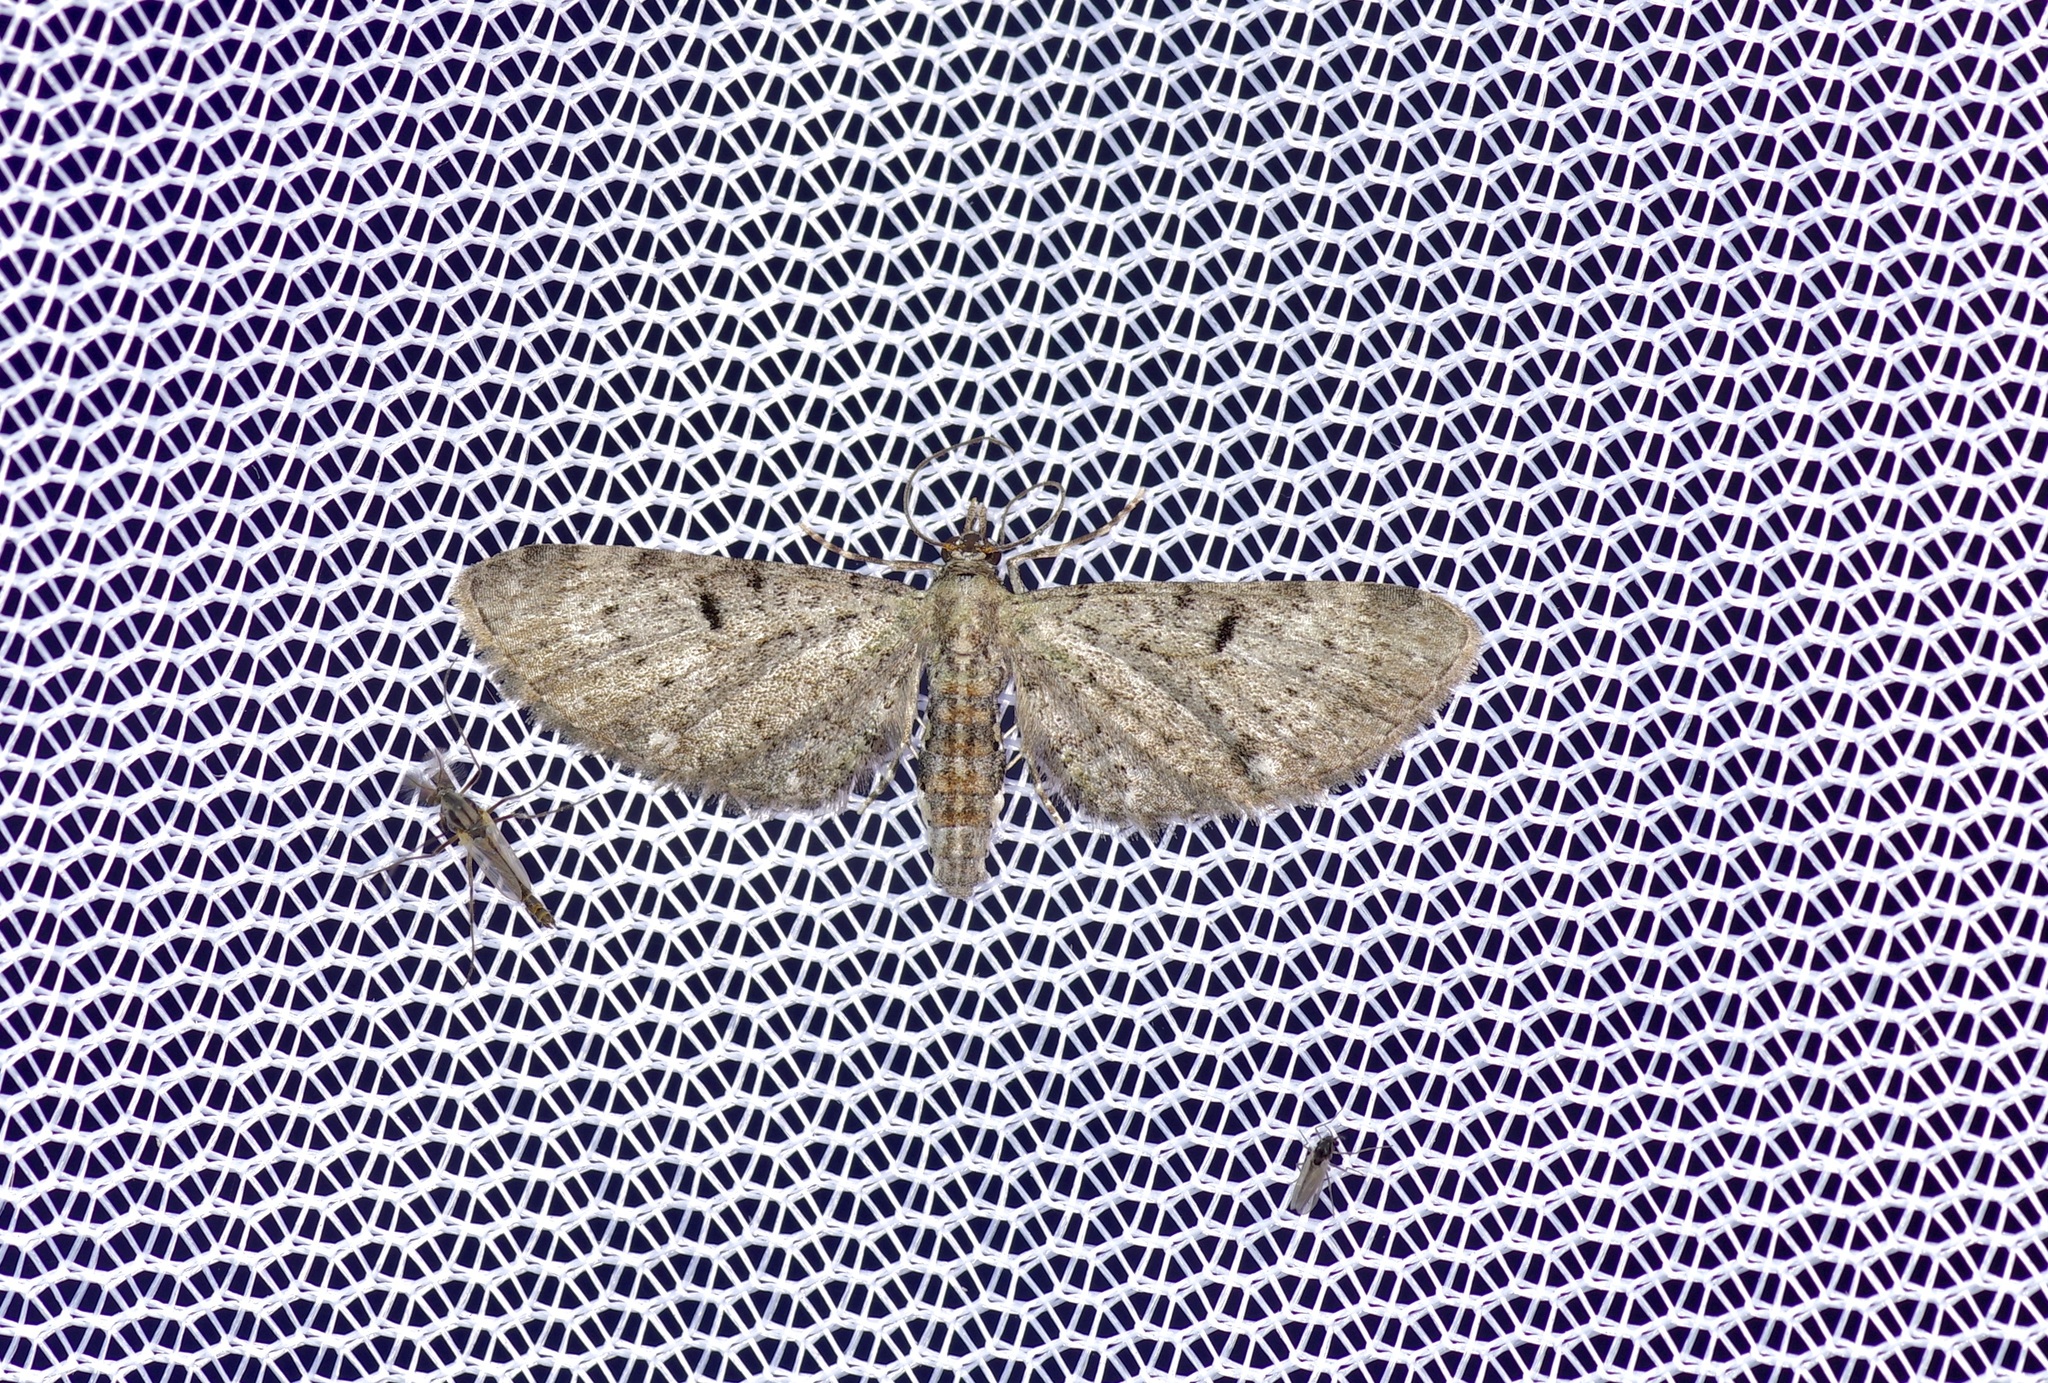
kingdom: Animalia
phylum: Arthropoda
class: Insecta
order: Lepidoptera
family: Geometridae
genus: Eupithecia
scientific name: Eupithecia miserulata
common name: Common eupithecia
